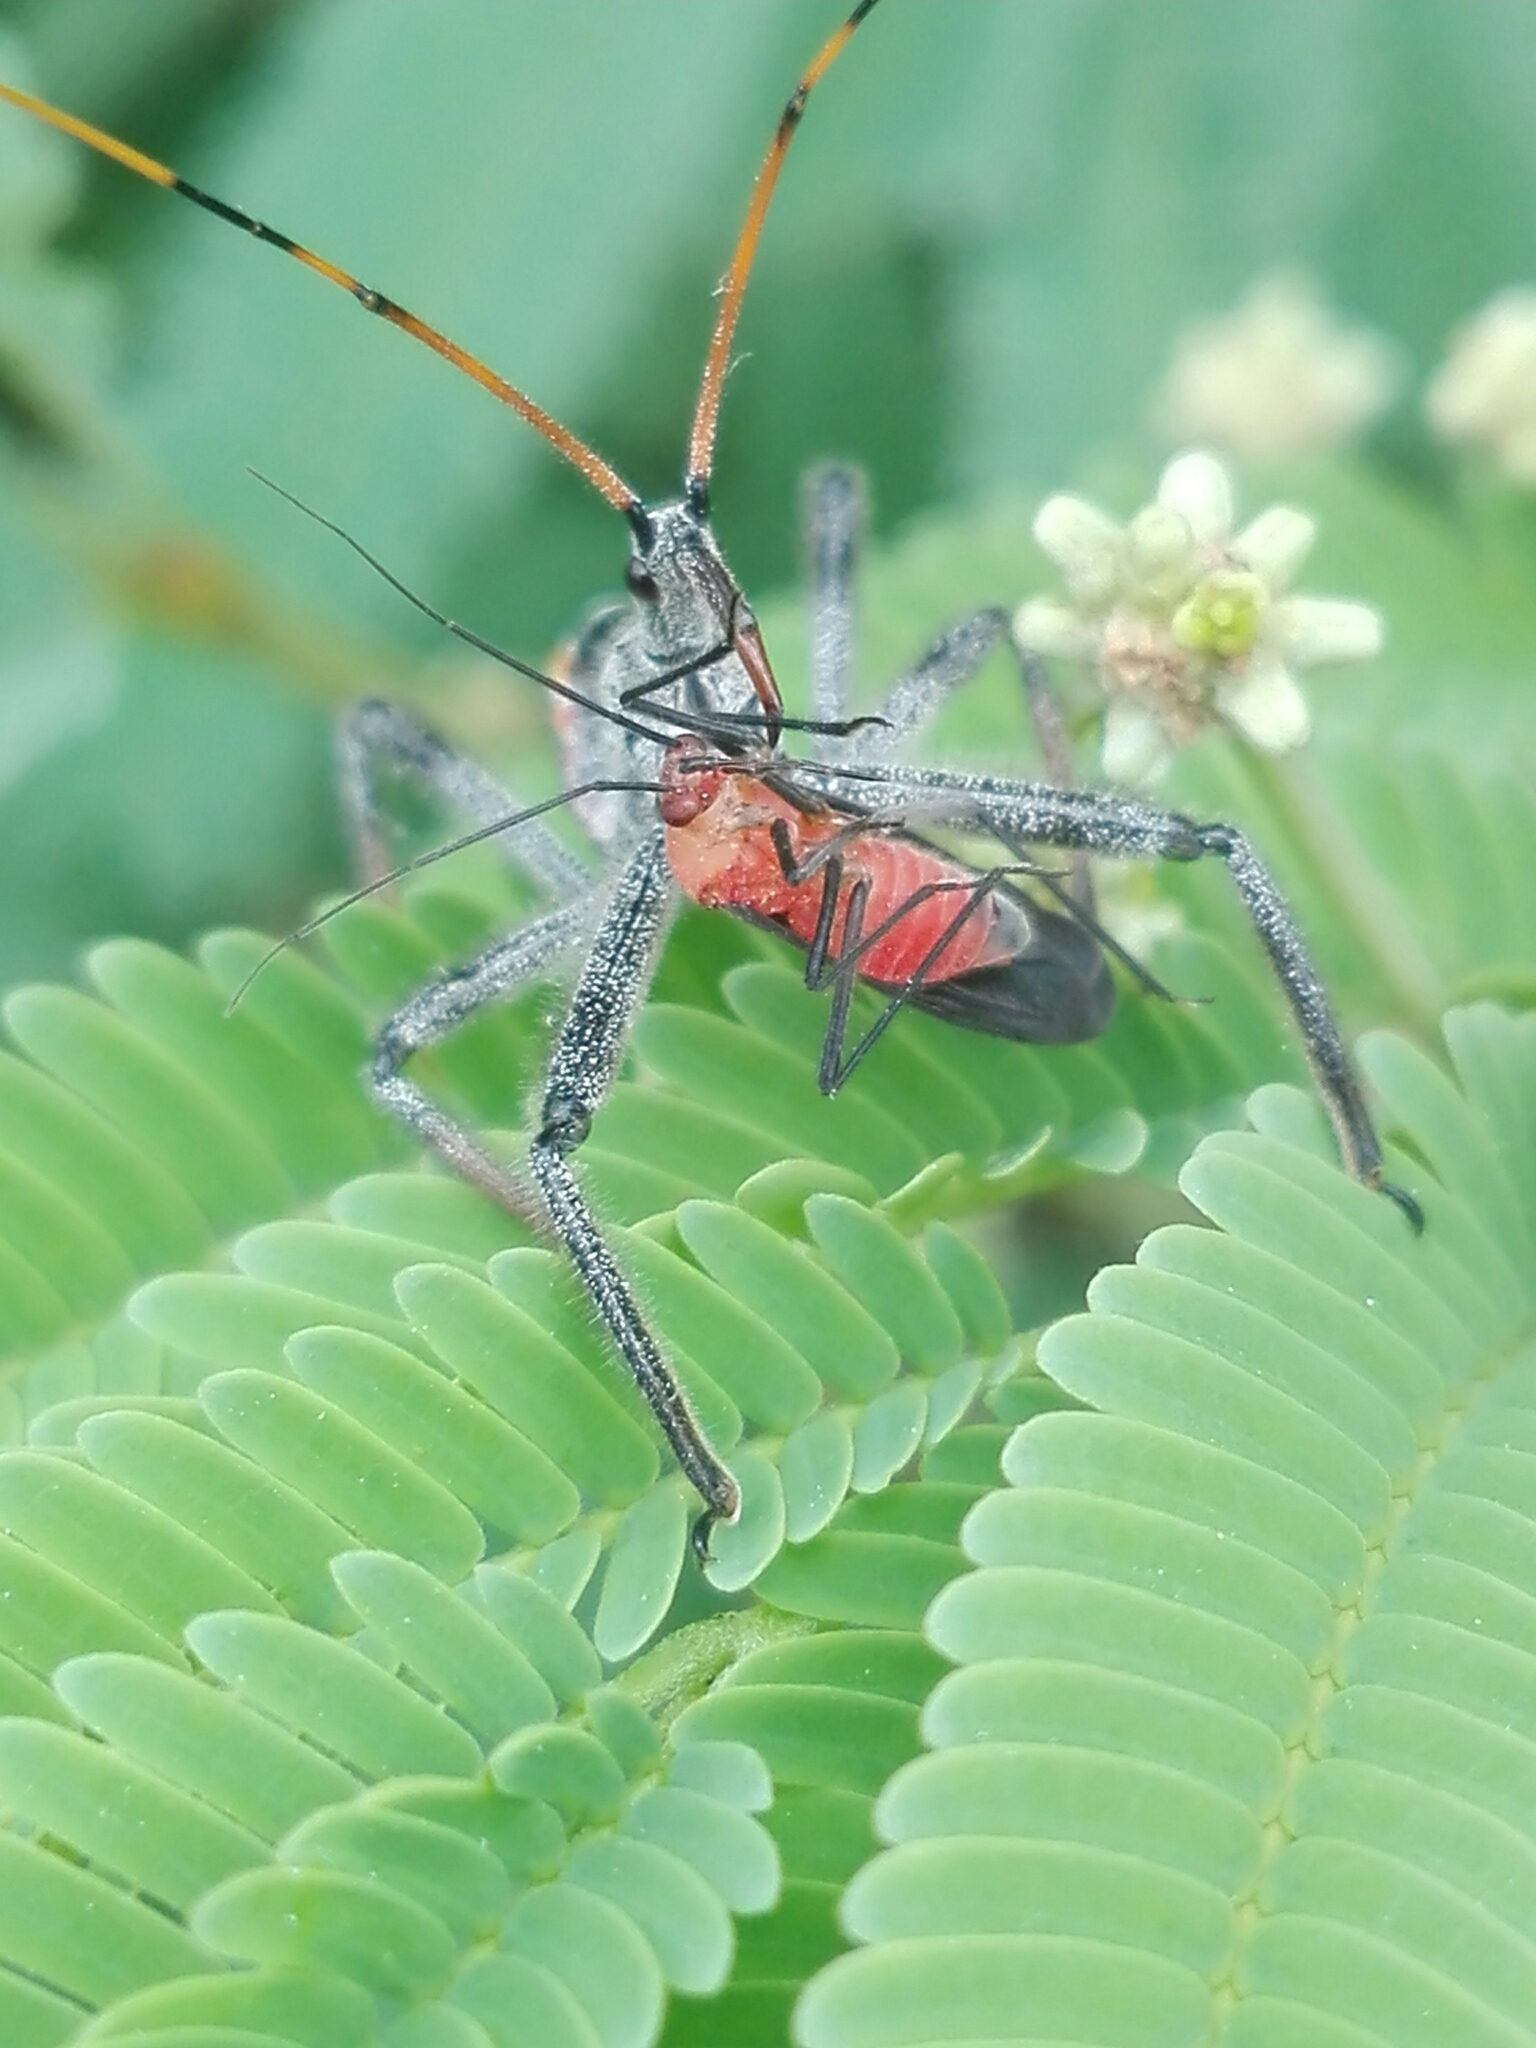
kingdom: Animalia
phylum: Arthropoda
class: Insecta
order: Hemiptera
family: Reduviidae
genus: Arilus
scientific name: Arilus cristatus
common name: North american wheel bug
